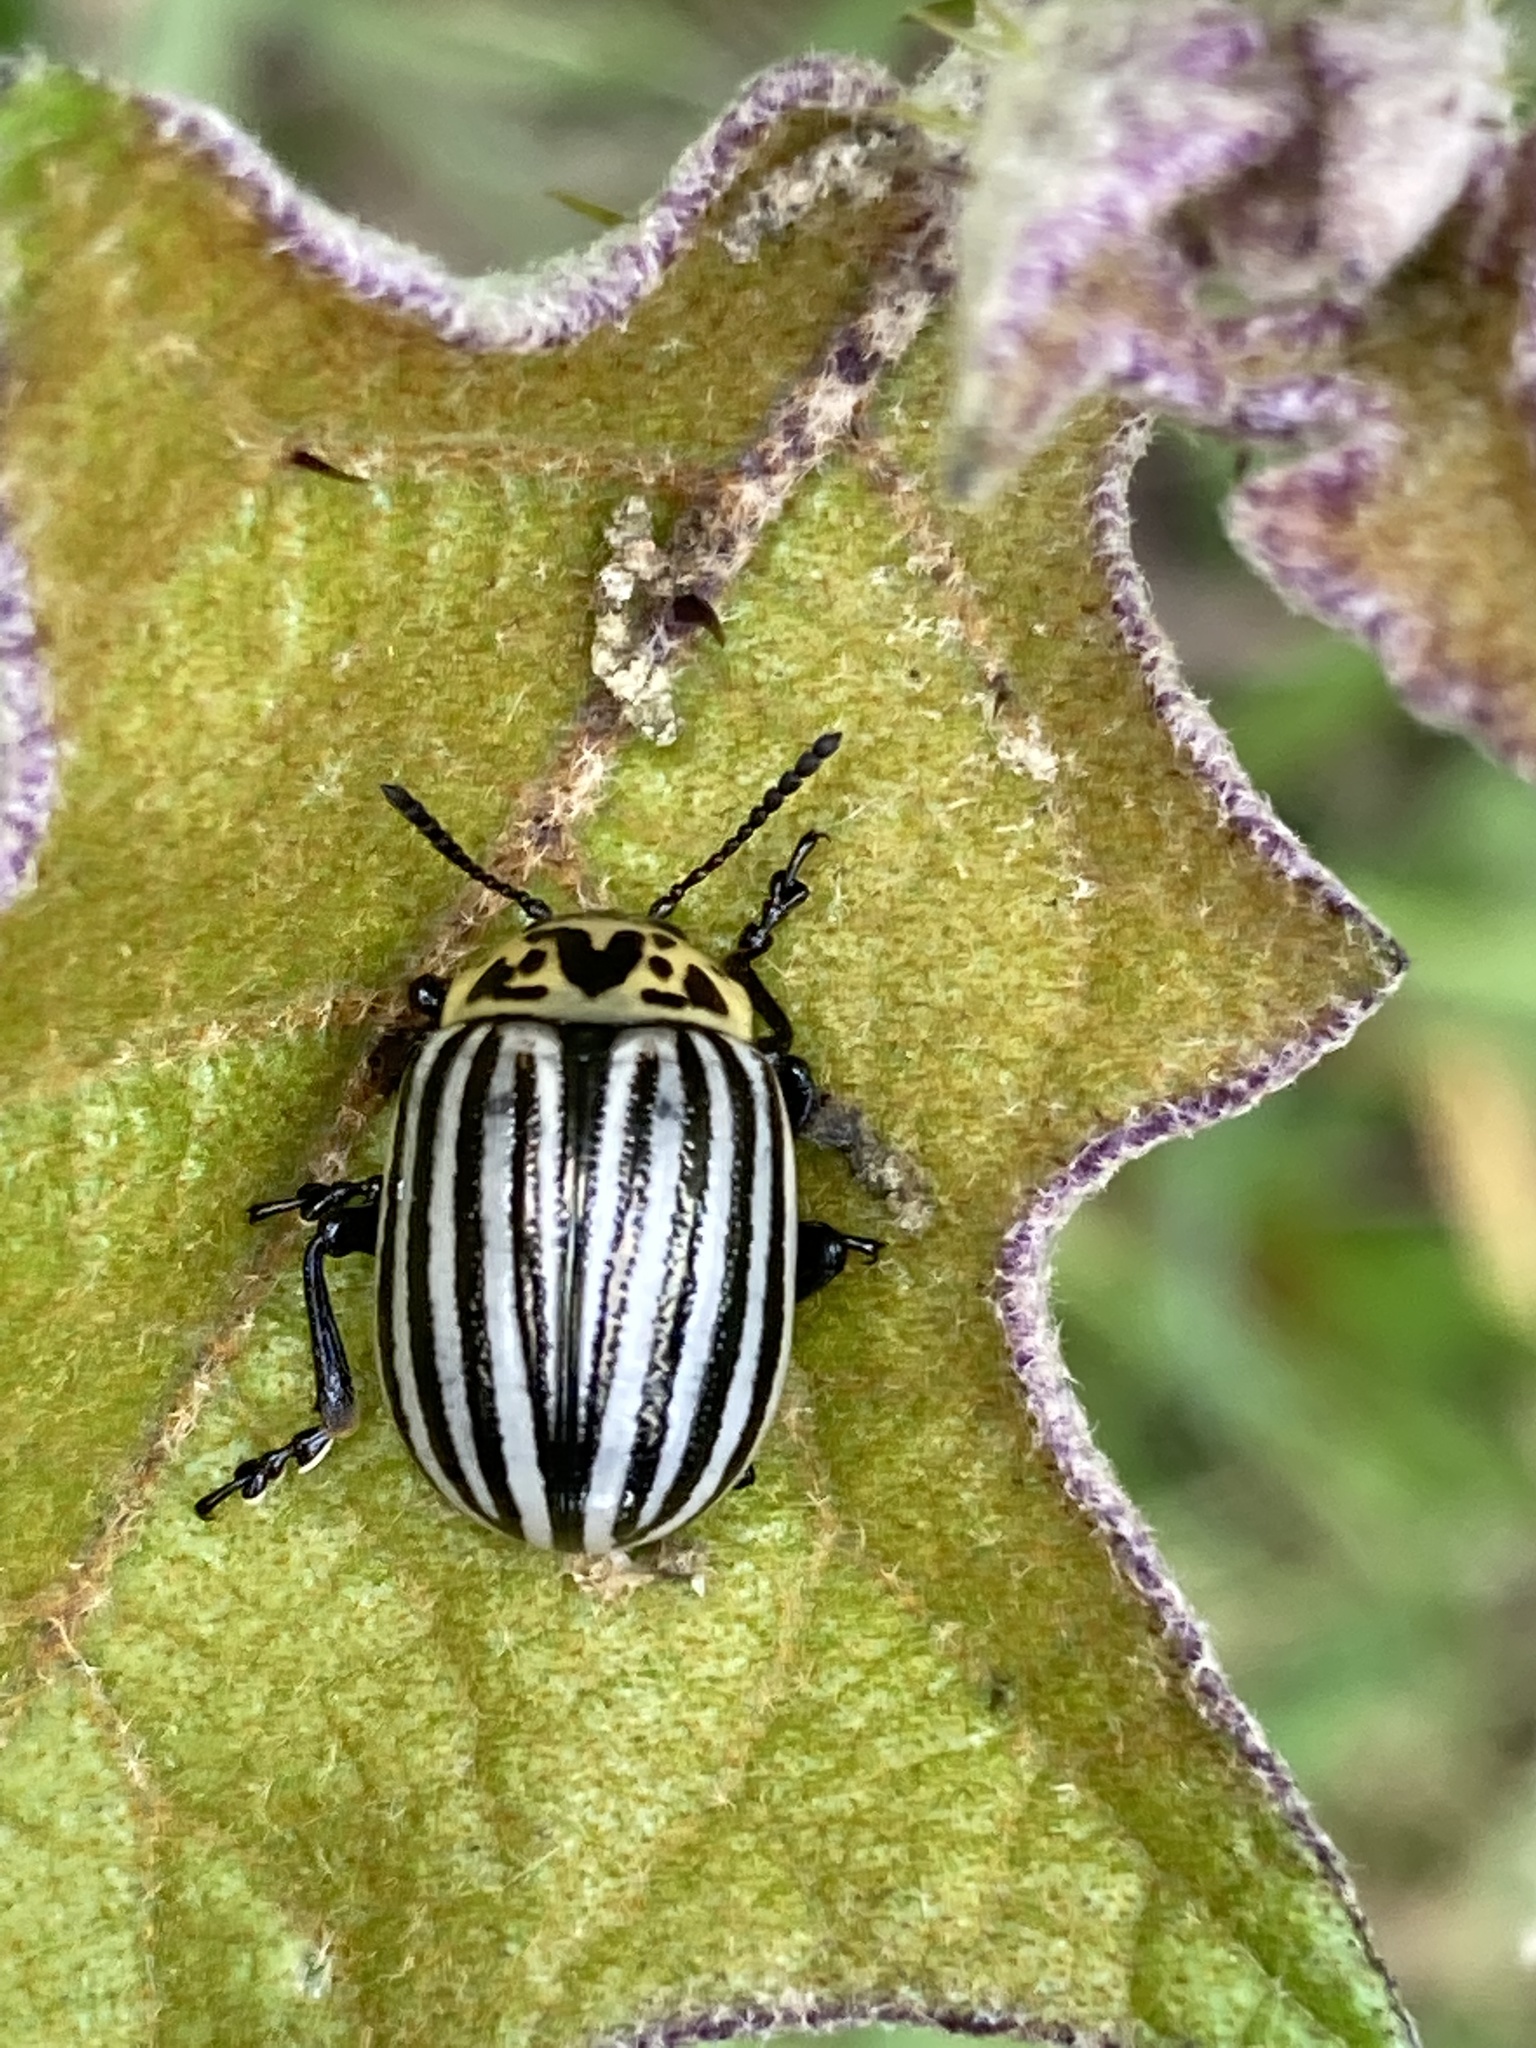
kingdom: Animalia
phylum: Arthropoda
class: Insecta
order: Coleoptera
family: Chrysomelidae
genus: Leptinotarsa
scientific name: Leptinotarsa
